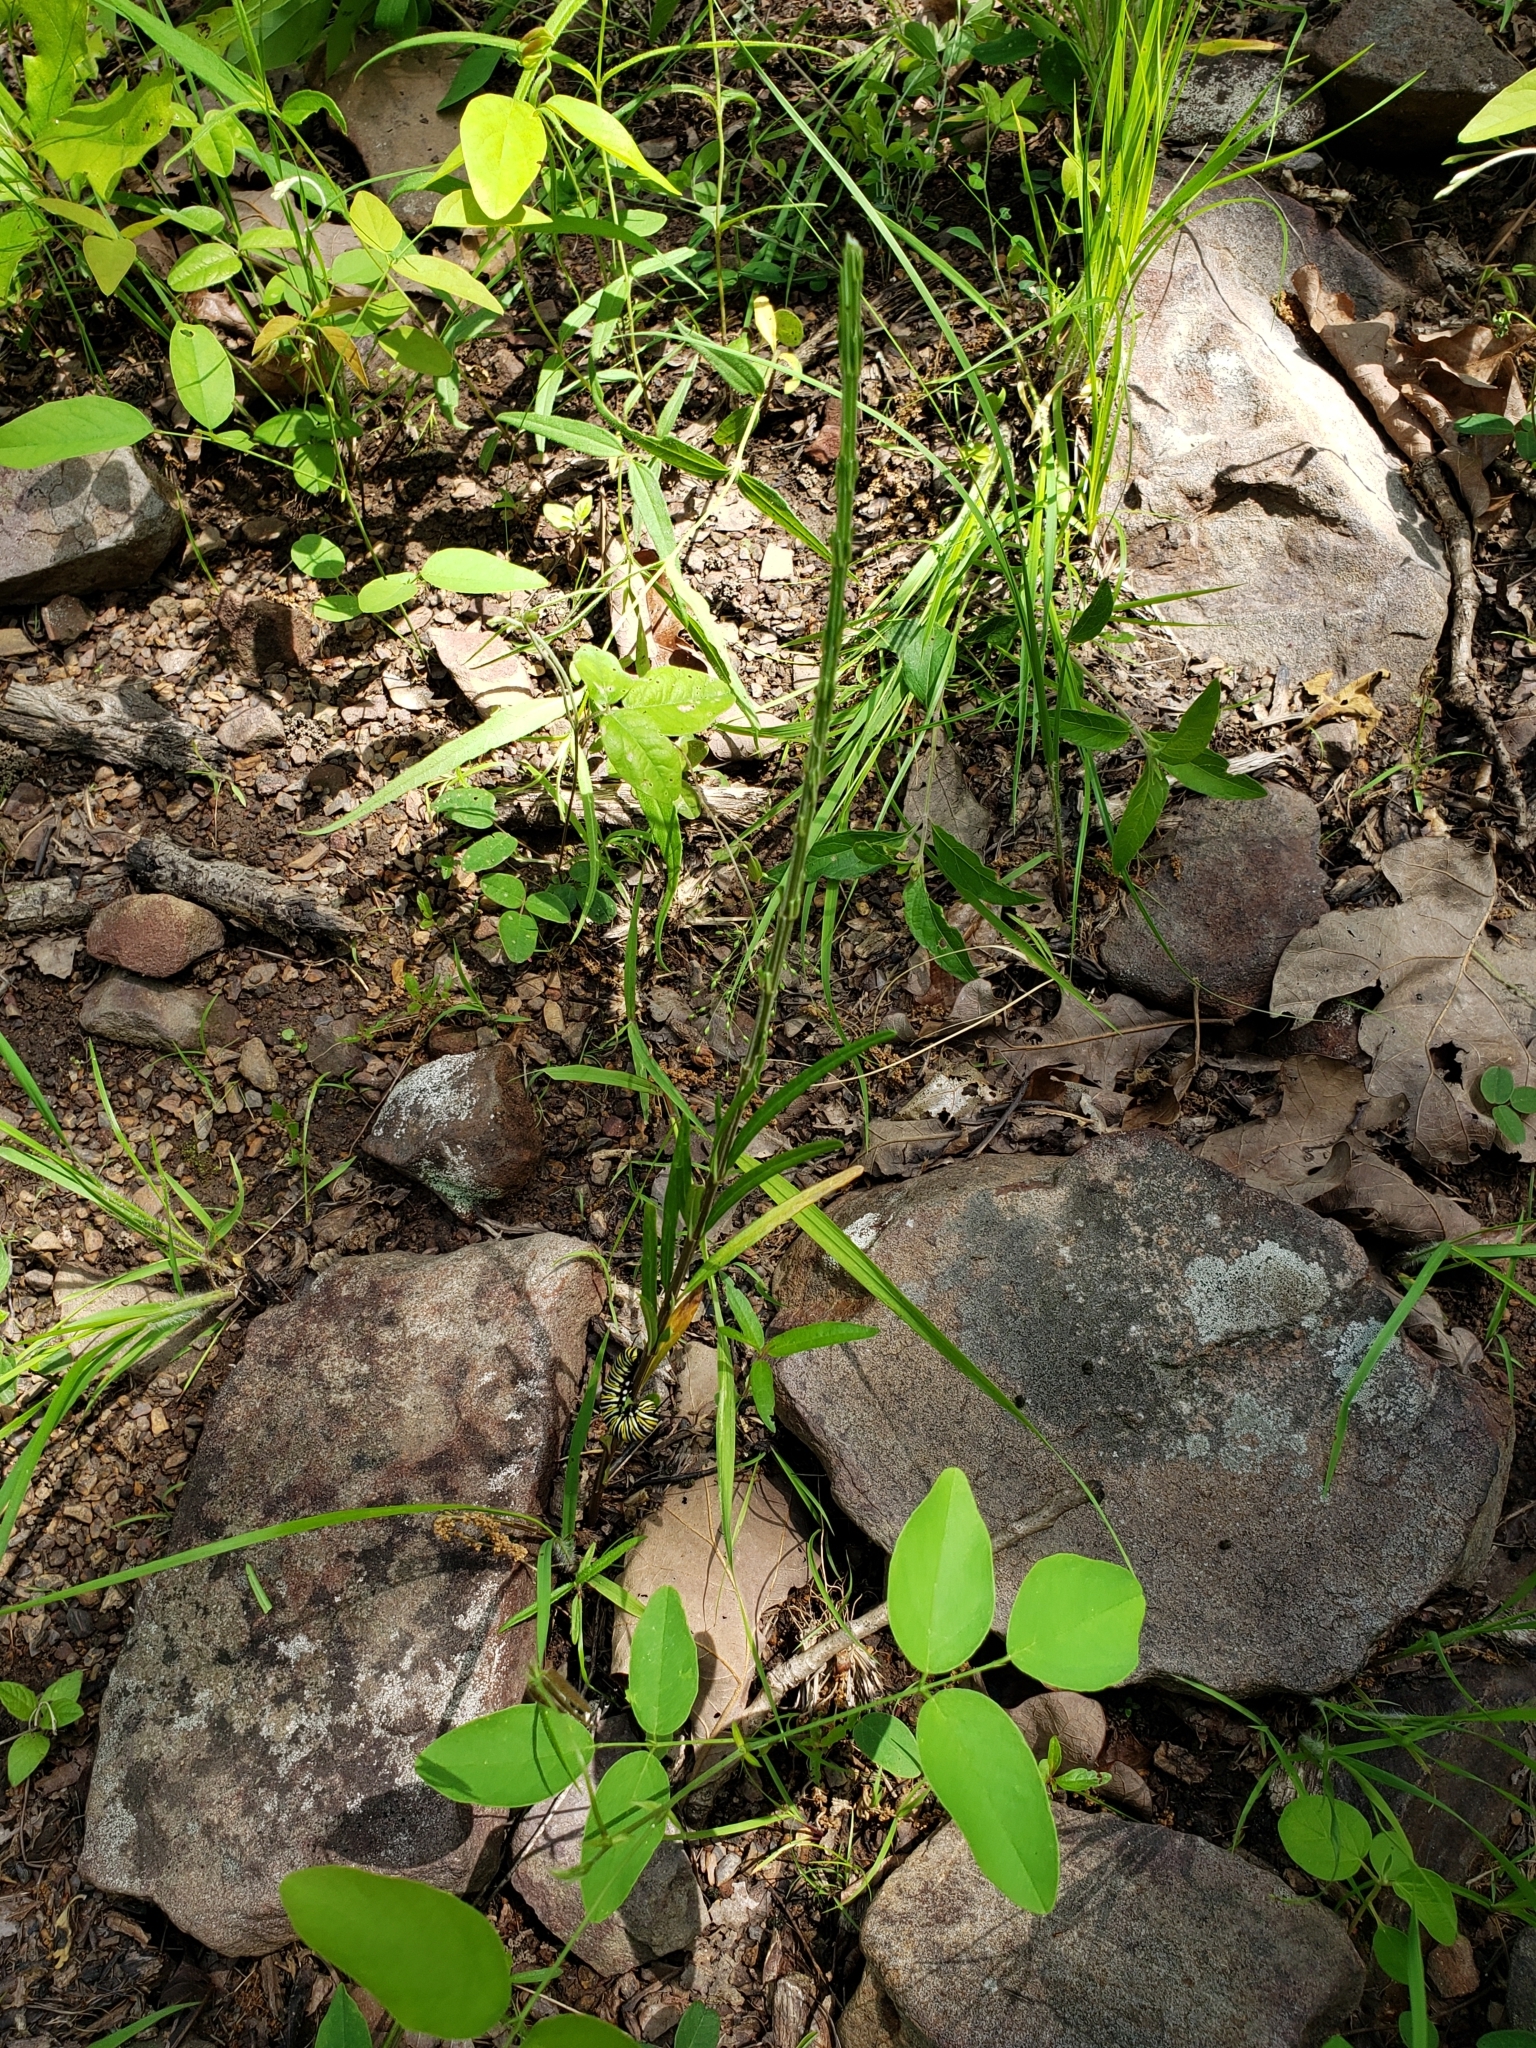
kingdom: Animalia
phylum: Arthropoda
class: Insecta
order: Lepidoptera
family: Nymphalidae
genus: Danaus
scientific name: Danaus plexippus
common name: Monarch
